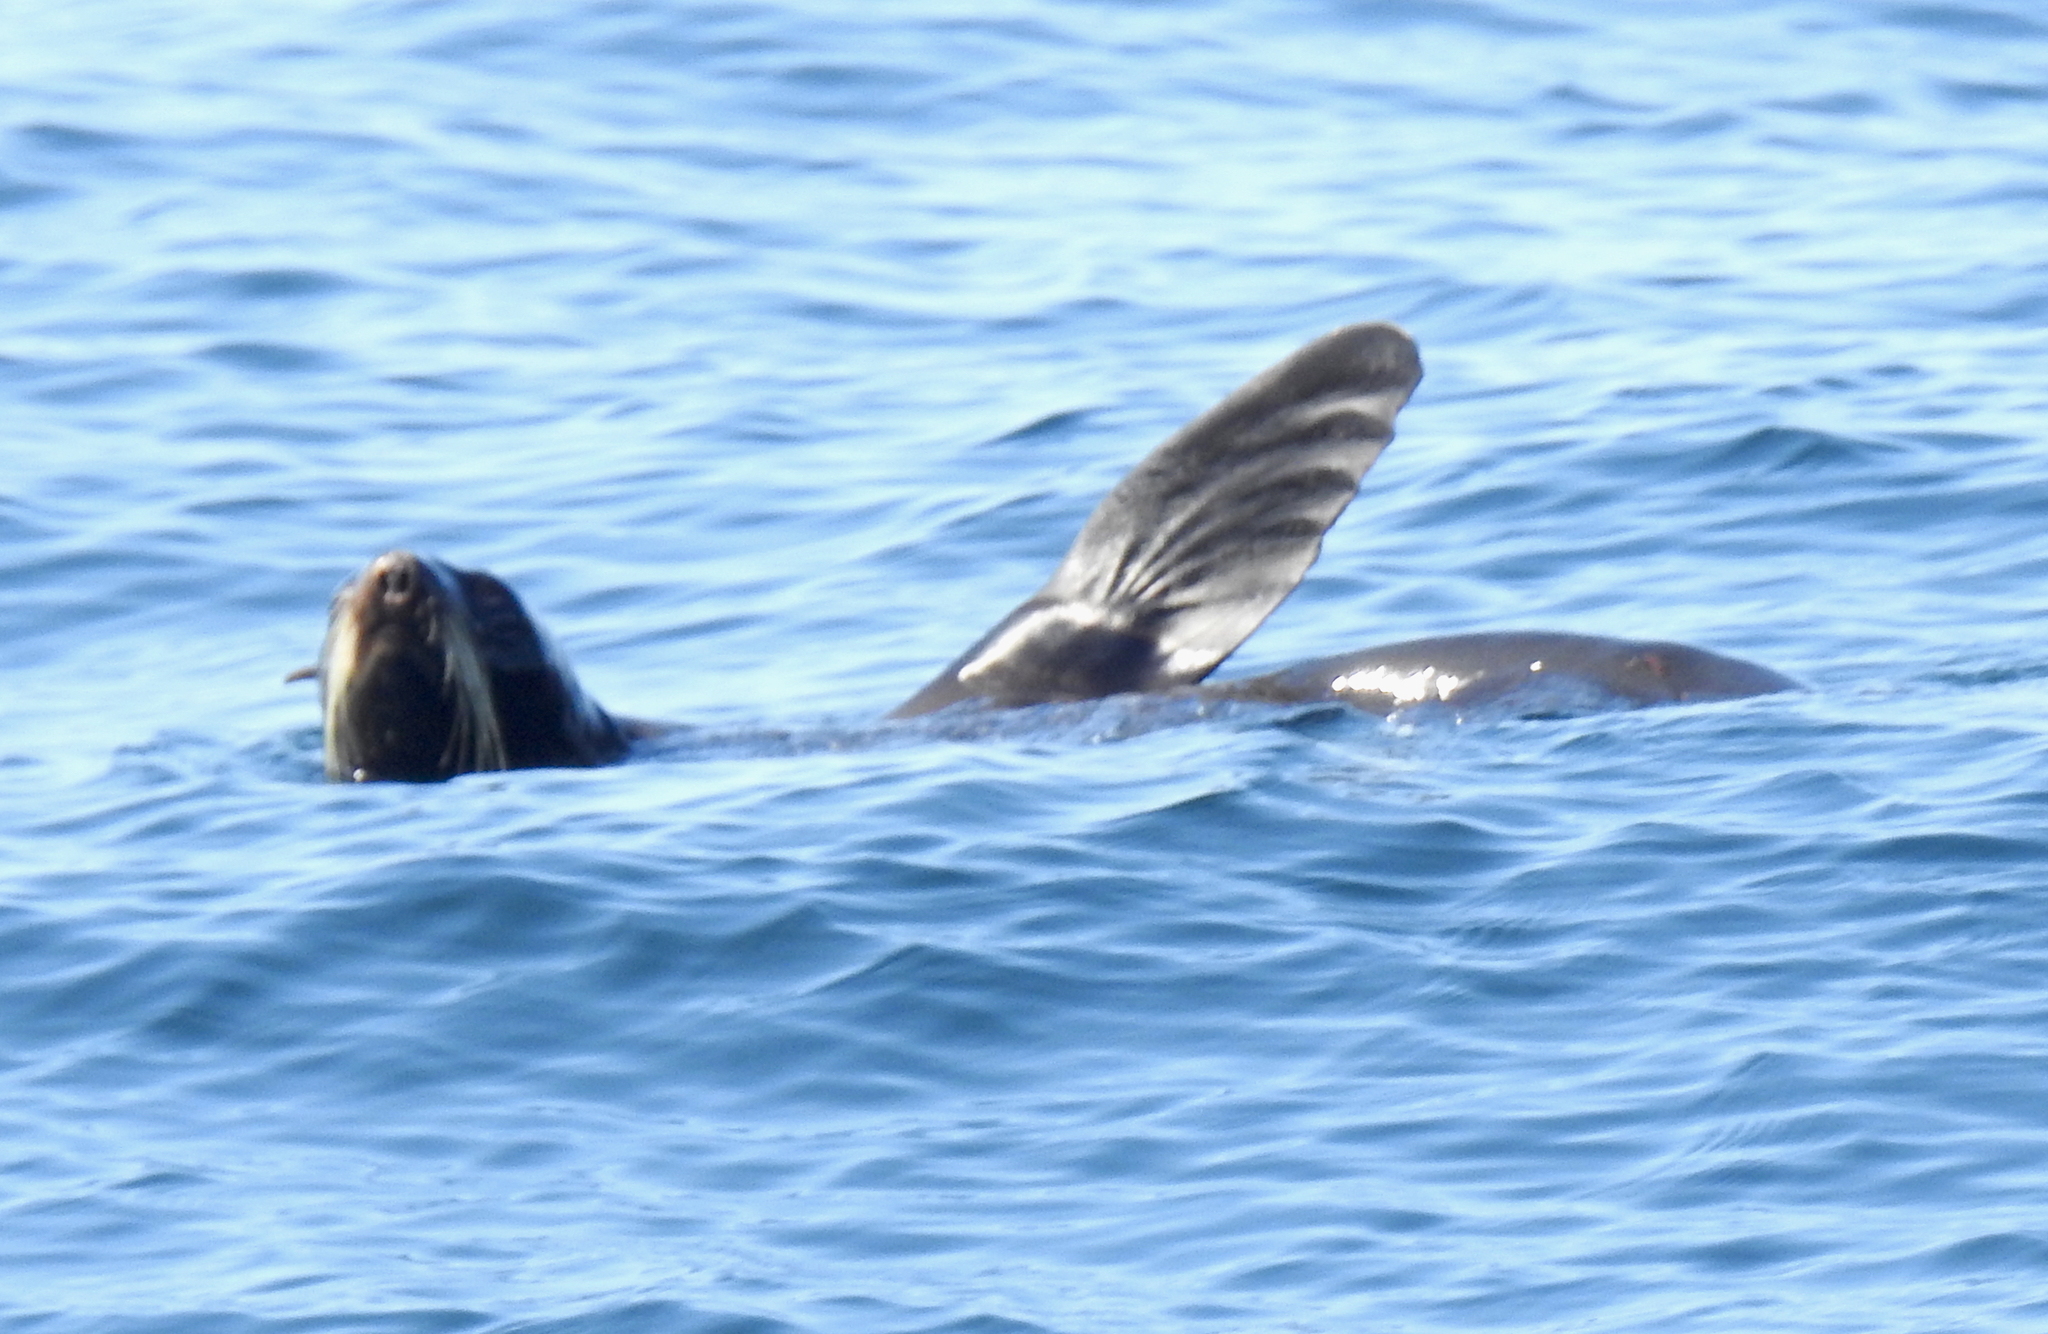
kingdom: Animalia
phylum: Chordata
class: Mammalia
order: Carnivora
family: Otariidae
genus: Callorhinus
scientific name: Callorhinus ursinus
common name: Northern fur seal
